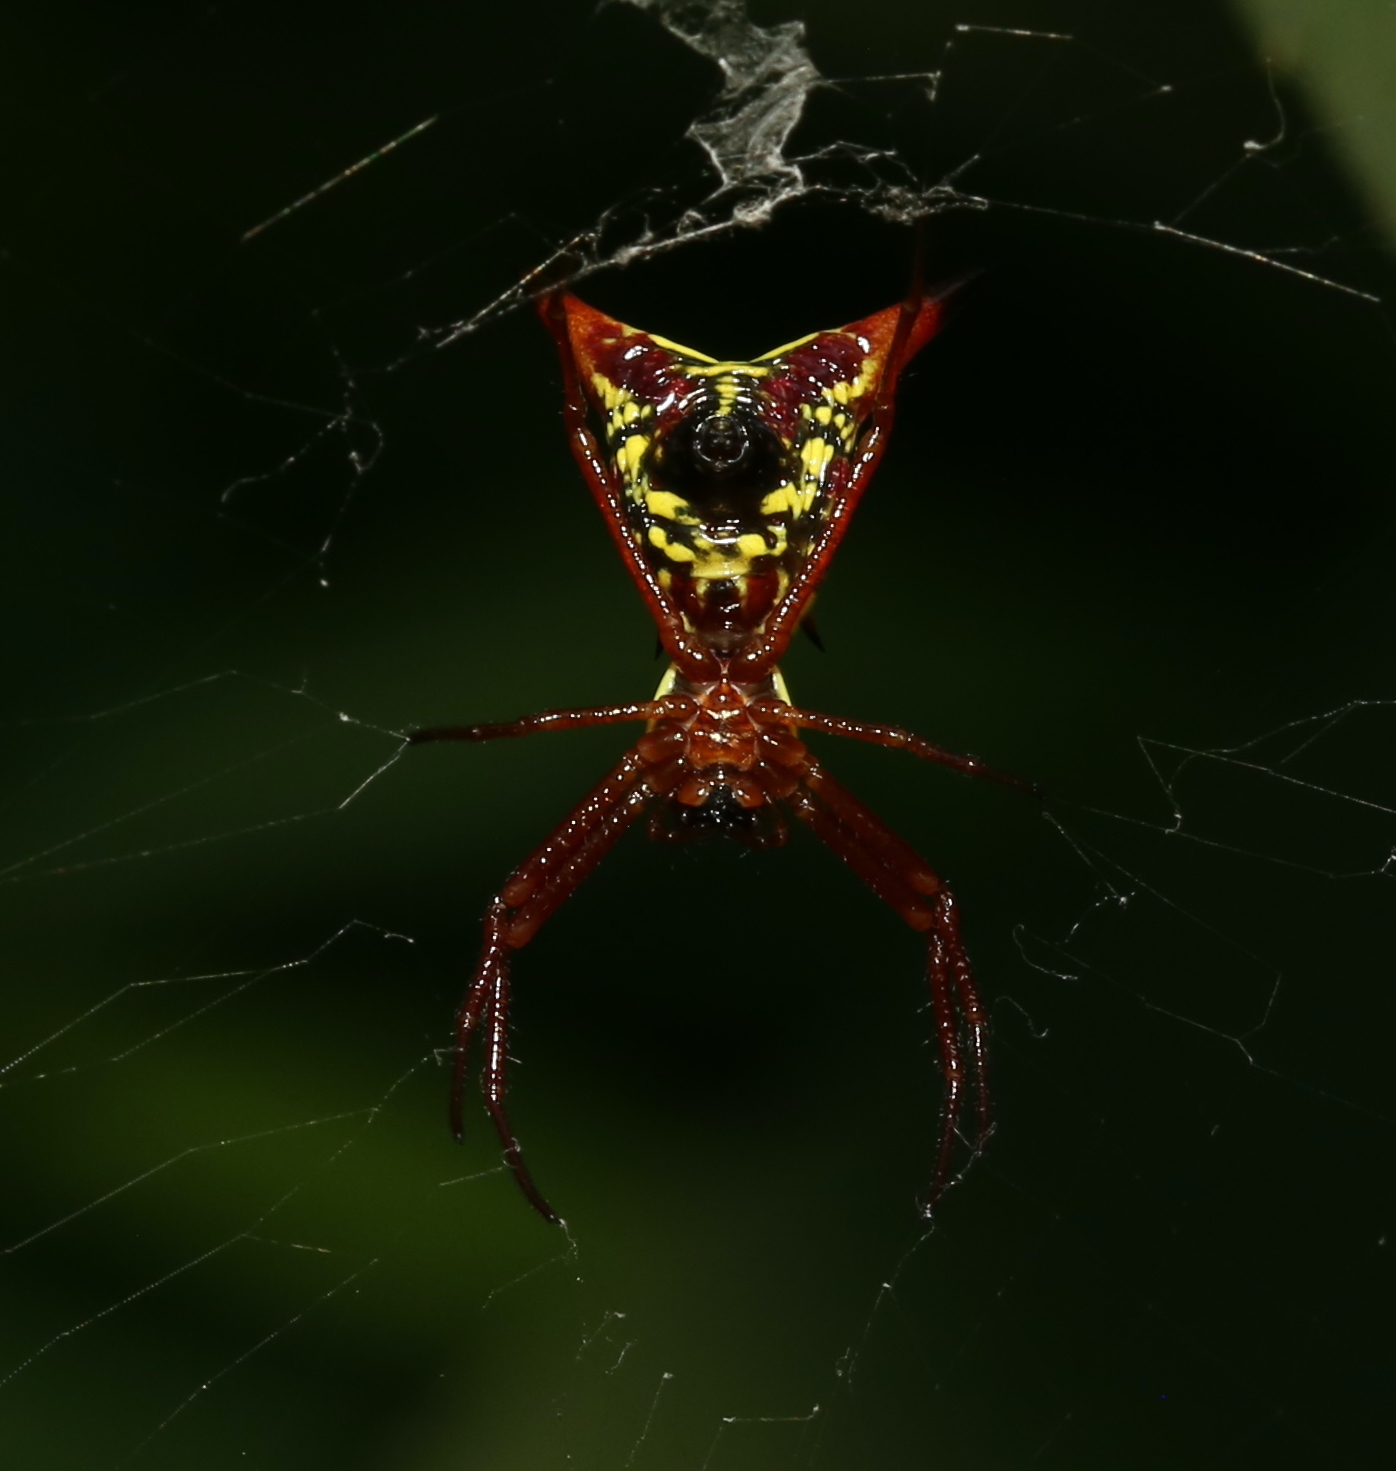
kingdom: Animalia
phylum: Arthropoda
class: Arachnida
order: Araneae
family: Araneidae
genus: Micrathena
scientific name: Micrathena sagittata
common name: Orb weavers
